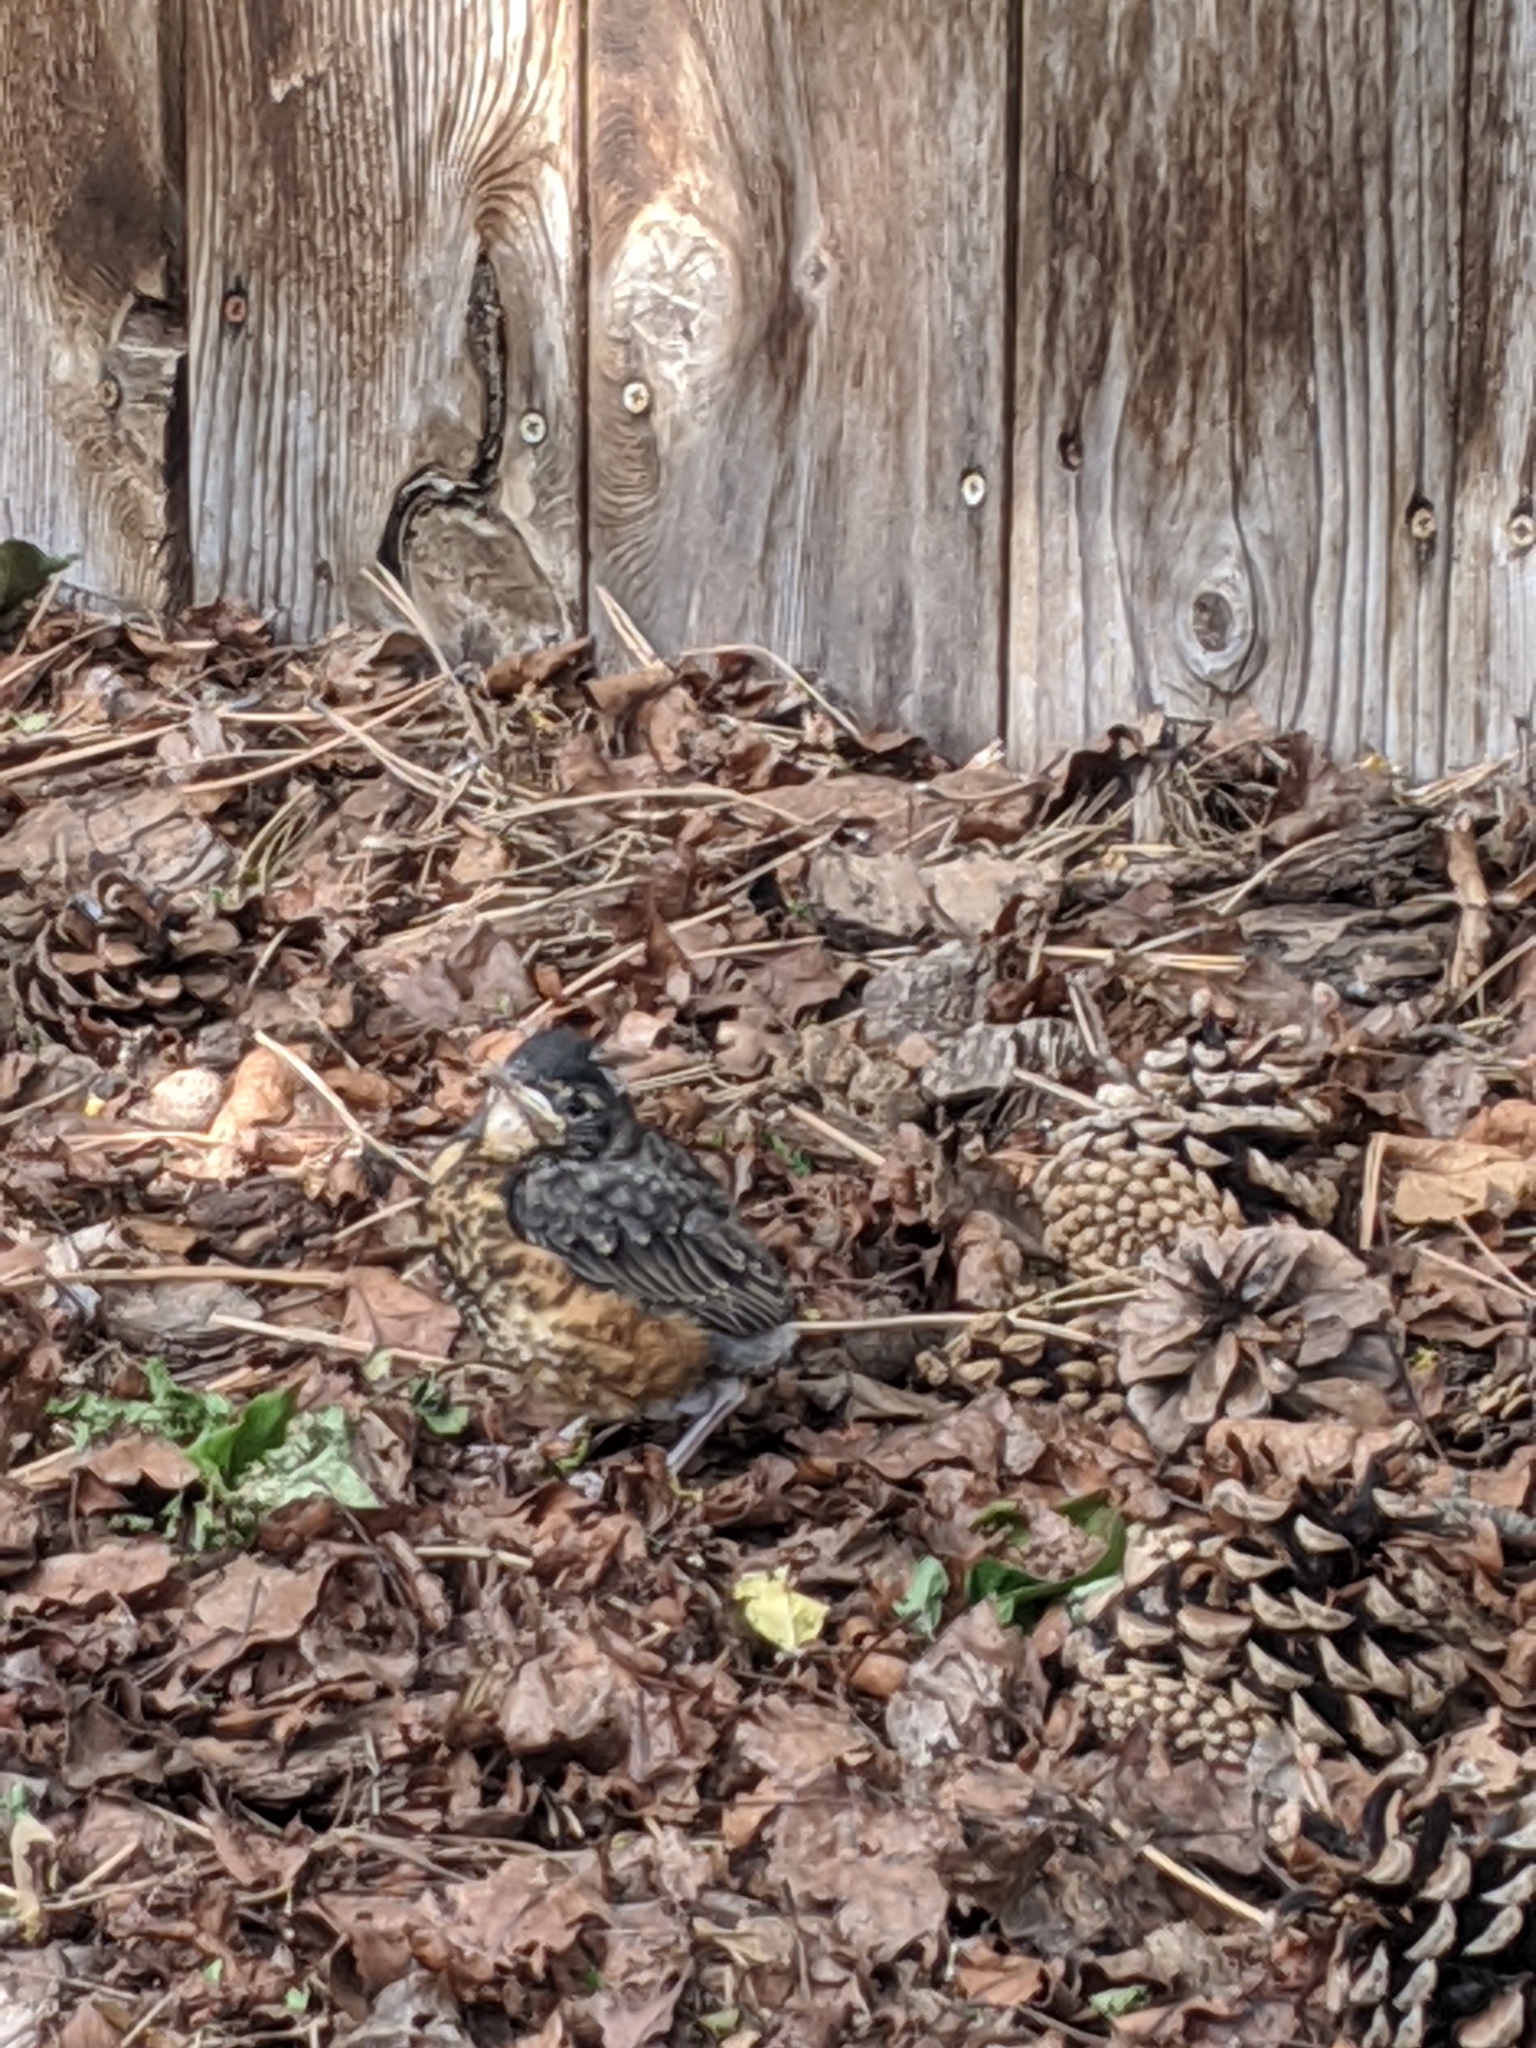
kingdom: Animalia
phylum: Chordata
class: Aves
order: Passeriformes
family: Turdidae
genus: Turdus
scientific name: Turdus migratorius
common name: American robin
